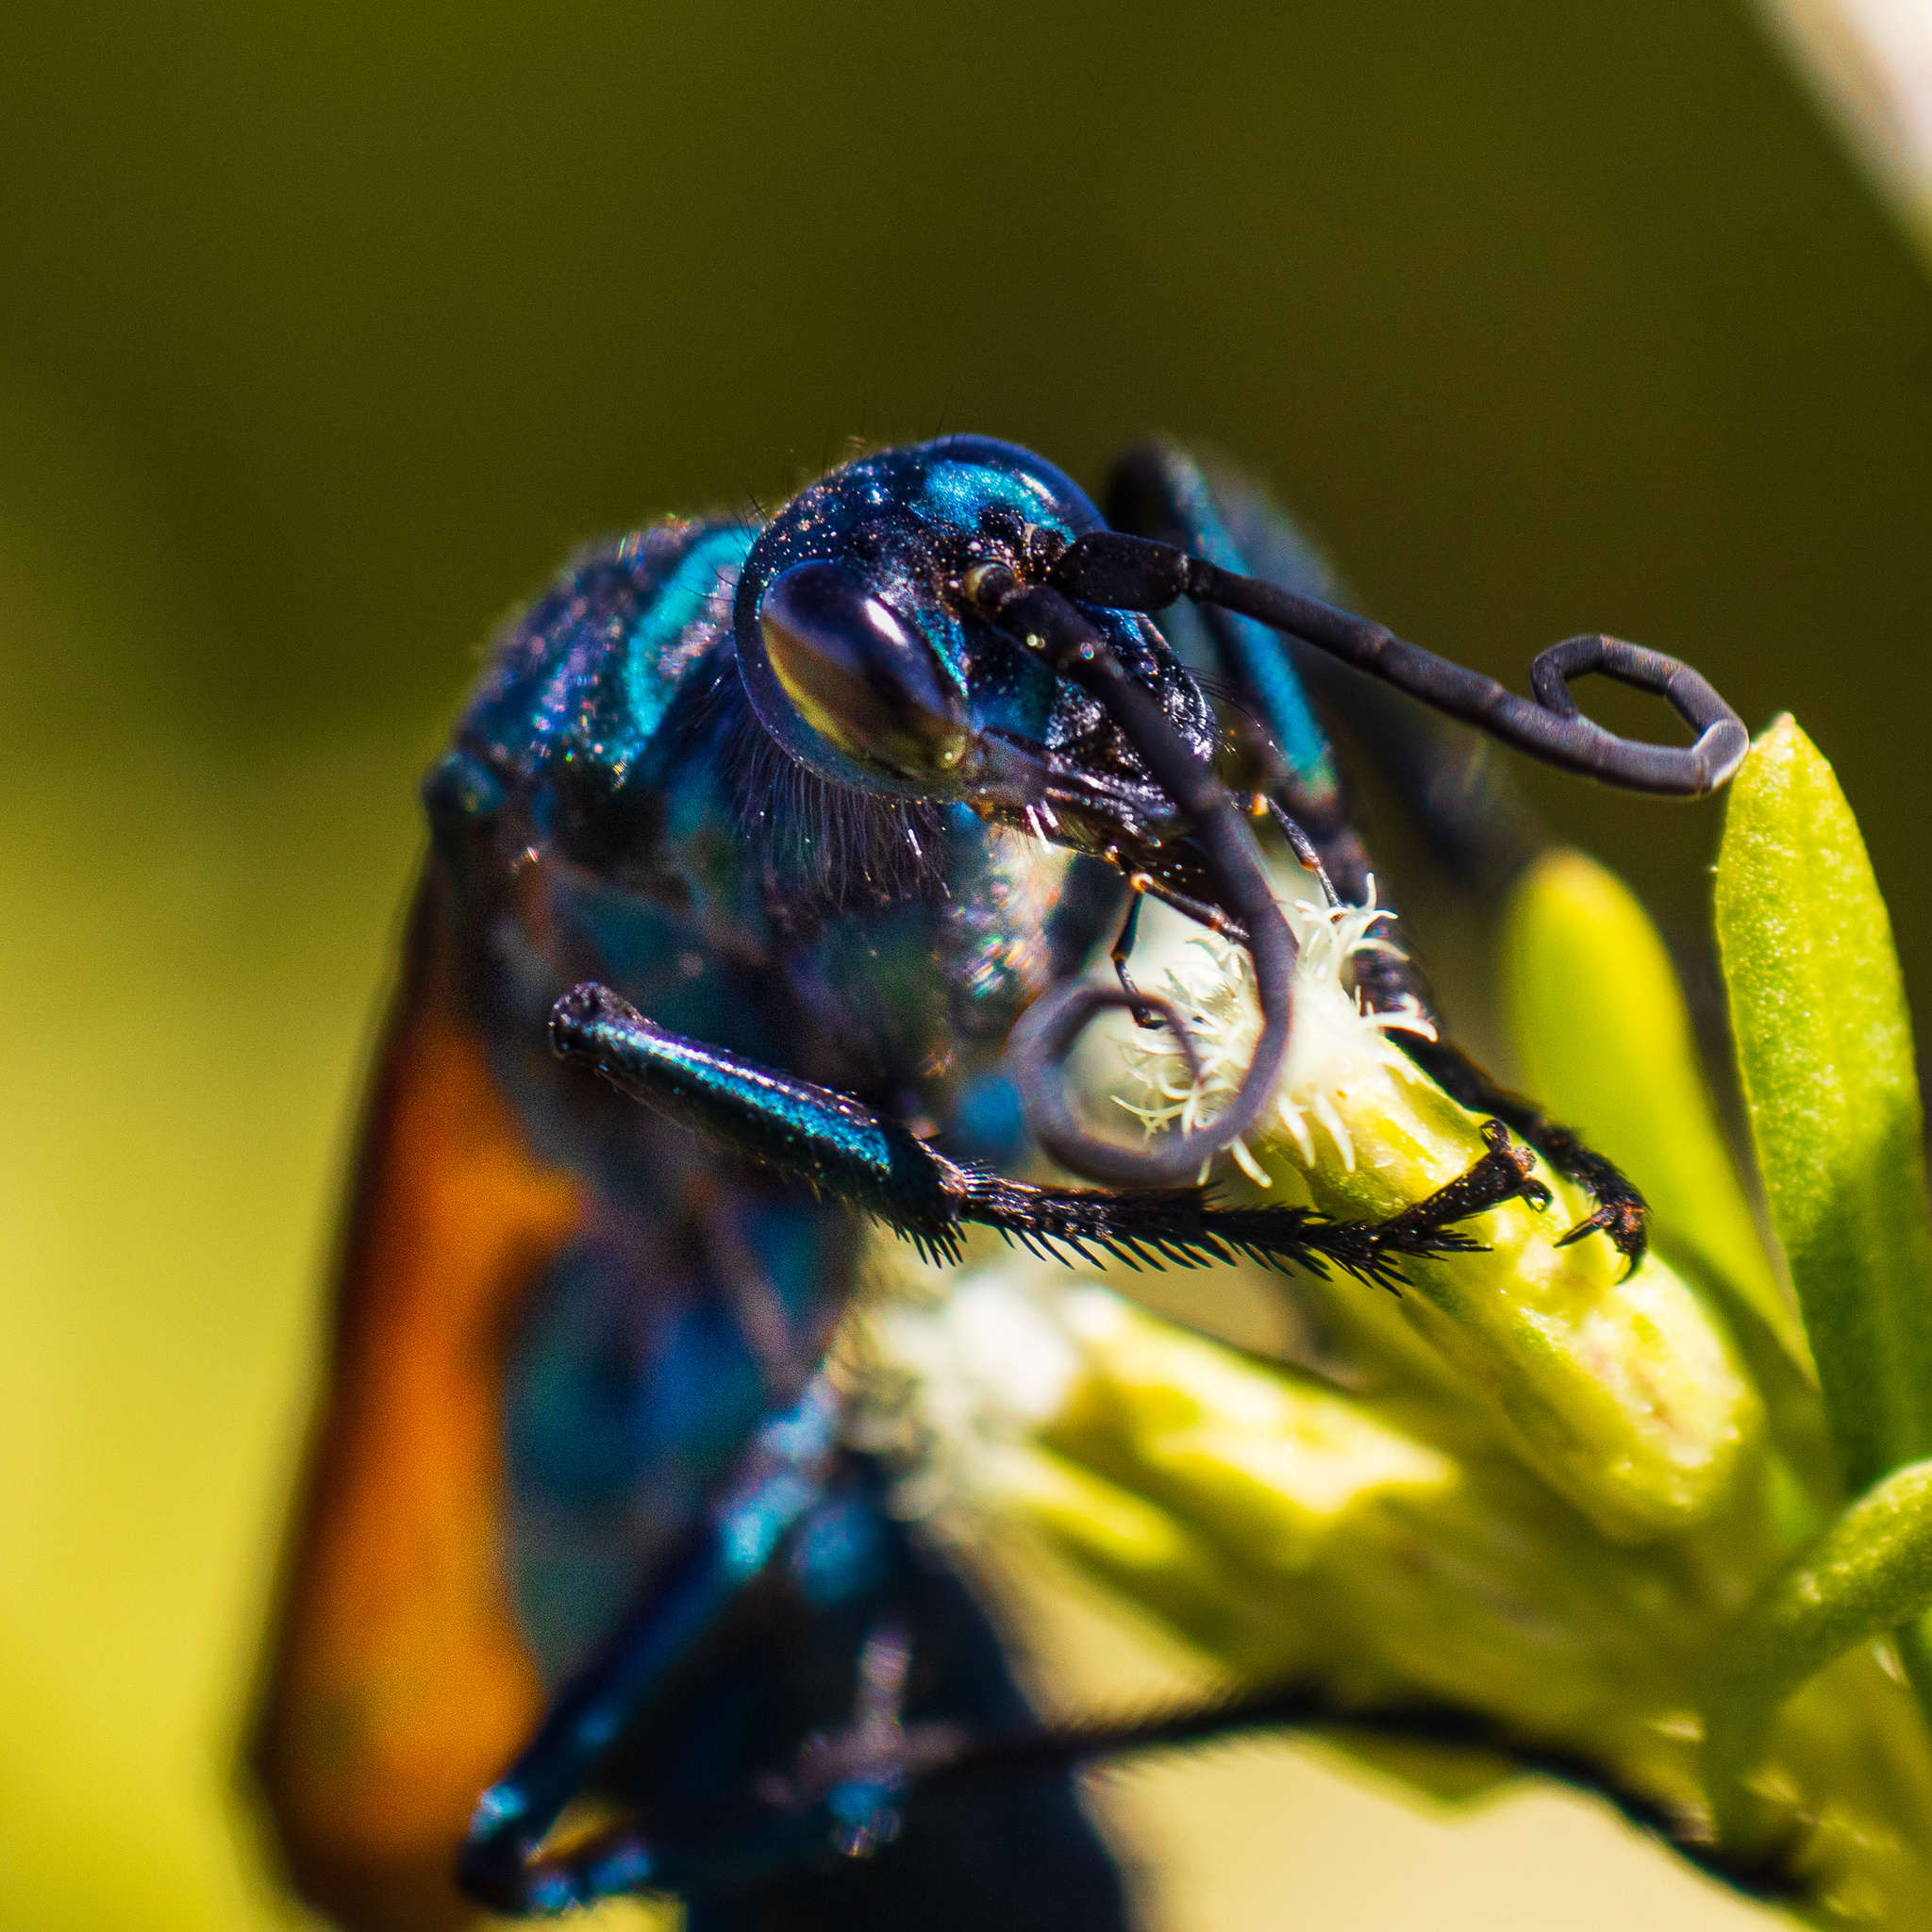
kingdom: Animalia
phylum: Arthropoda
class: Insecta
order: Hymenoptera
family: Pompilidae
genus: Pepsis
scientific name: Pepsis limbata
